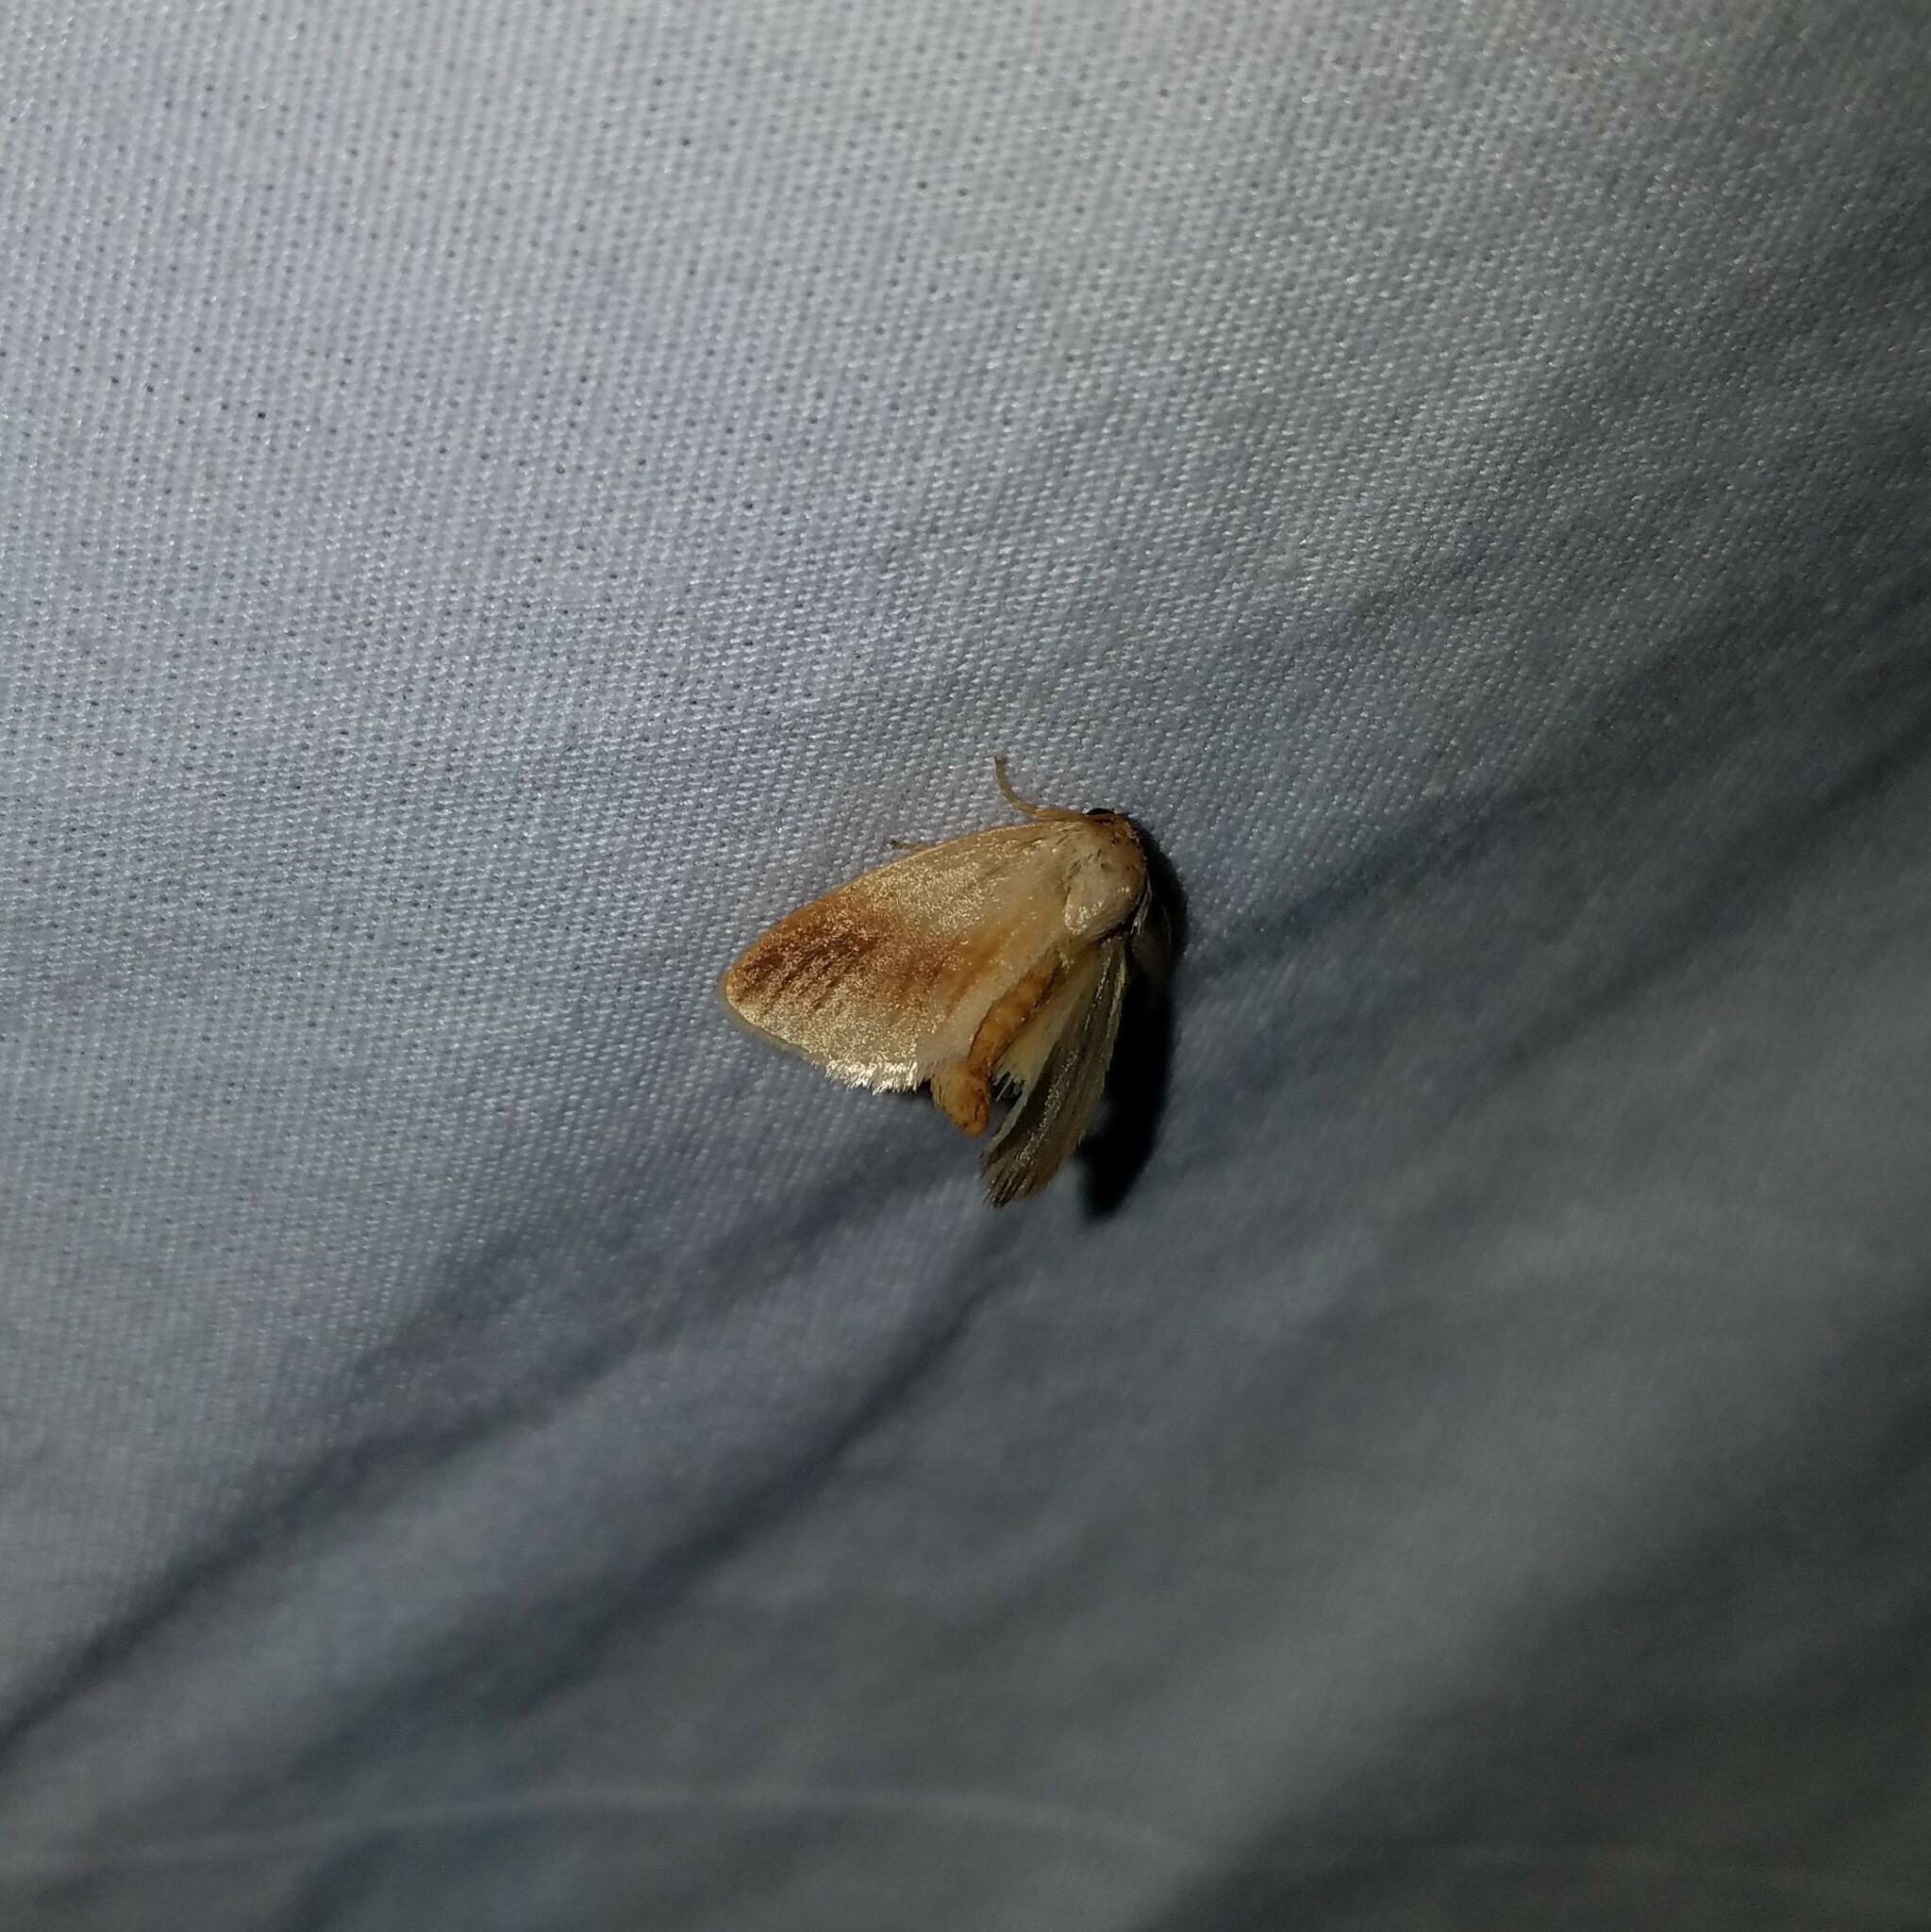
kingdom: Animalia
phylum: Arthropoda
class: Insecta
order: Lepidoptera
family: Limacodidae
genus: Tortricidia
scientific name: Tortricidia testacea
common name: Early button slug moth
